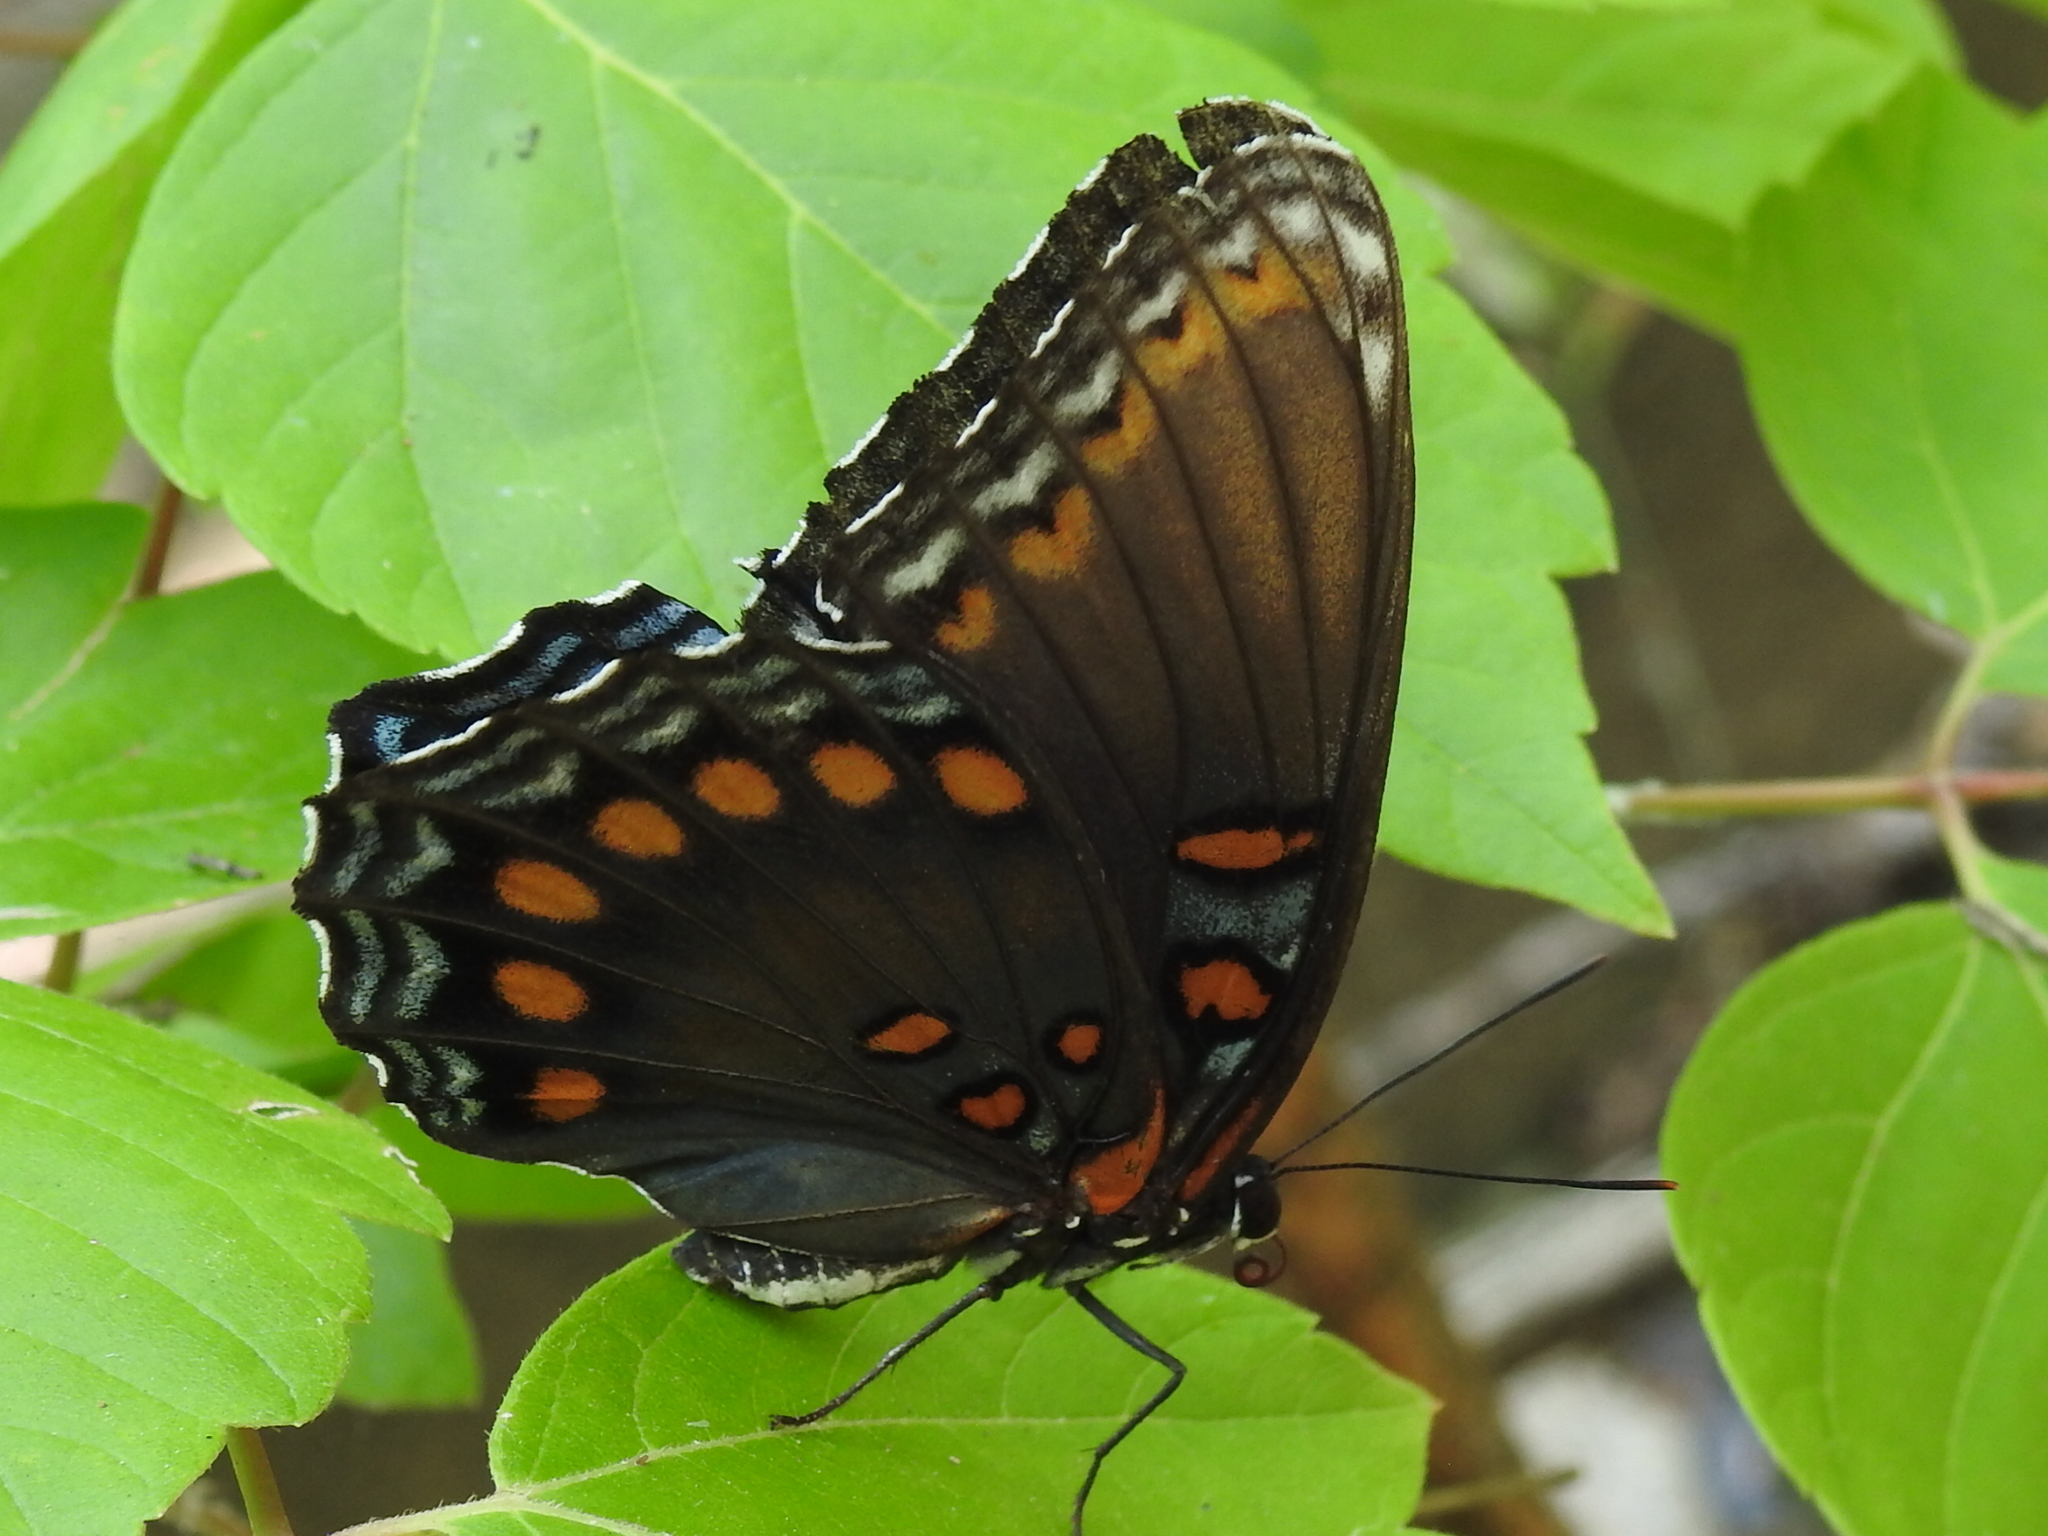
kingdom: Animalia
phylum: Arthropoda
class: Insecta
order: Lepidoptera
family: Nymphalidae
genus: Limenitis
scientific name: Limenitis arthemis
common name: Red-spotted admiral
